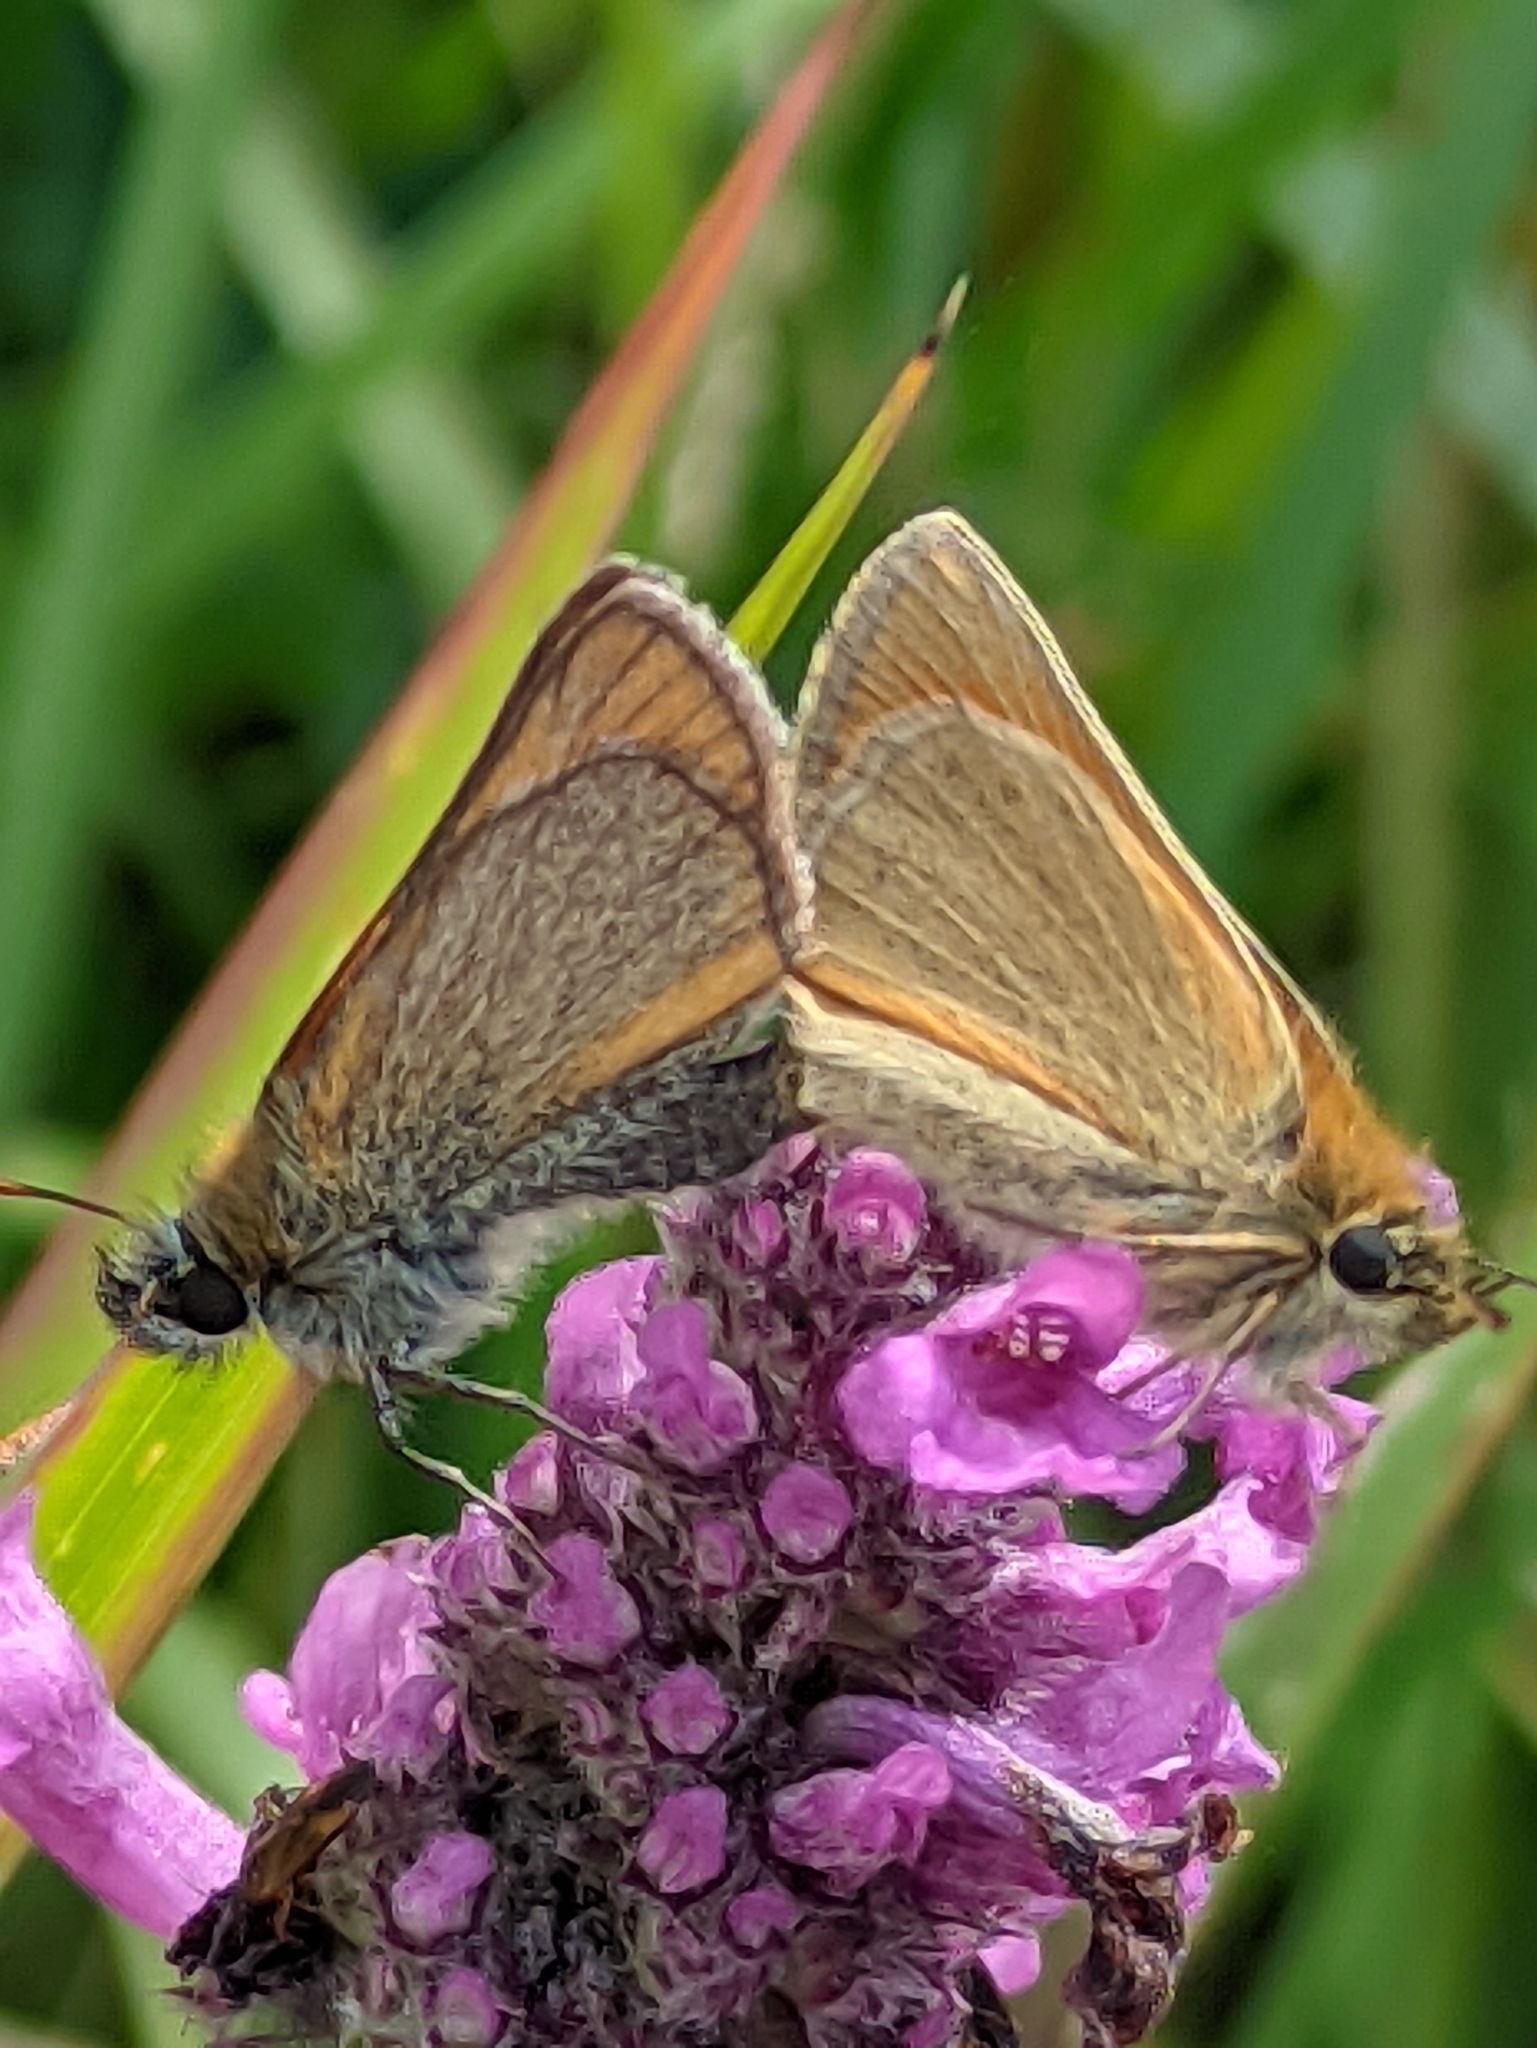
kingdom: Animalia
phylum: Arthropoda
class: Insecta
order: Lepidoptera
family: Hesperiidae
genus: Thymelicus
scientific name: Thymelicus sylvestris
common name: Small skipper
